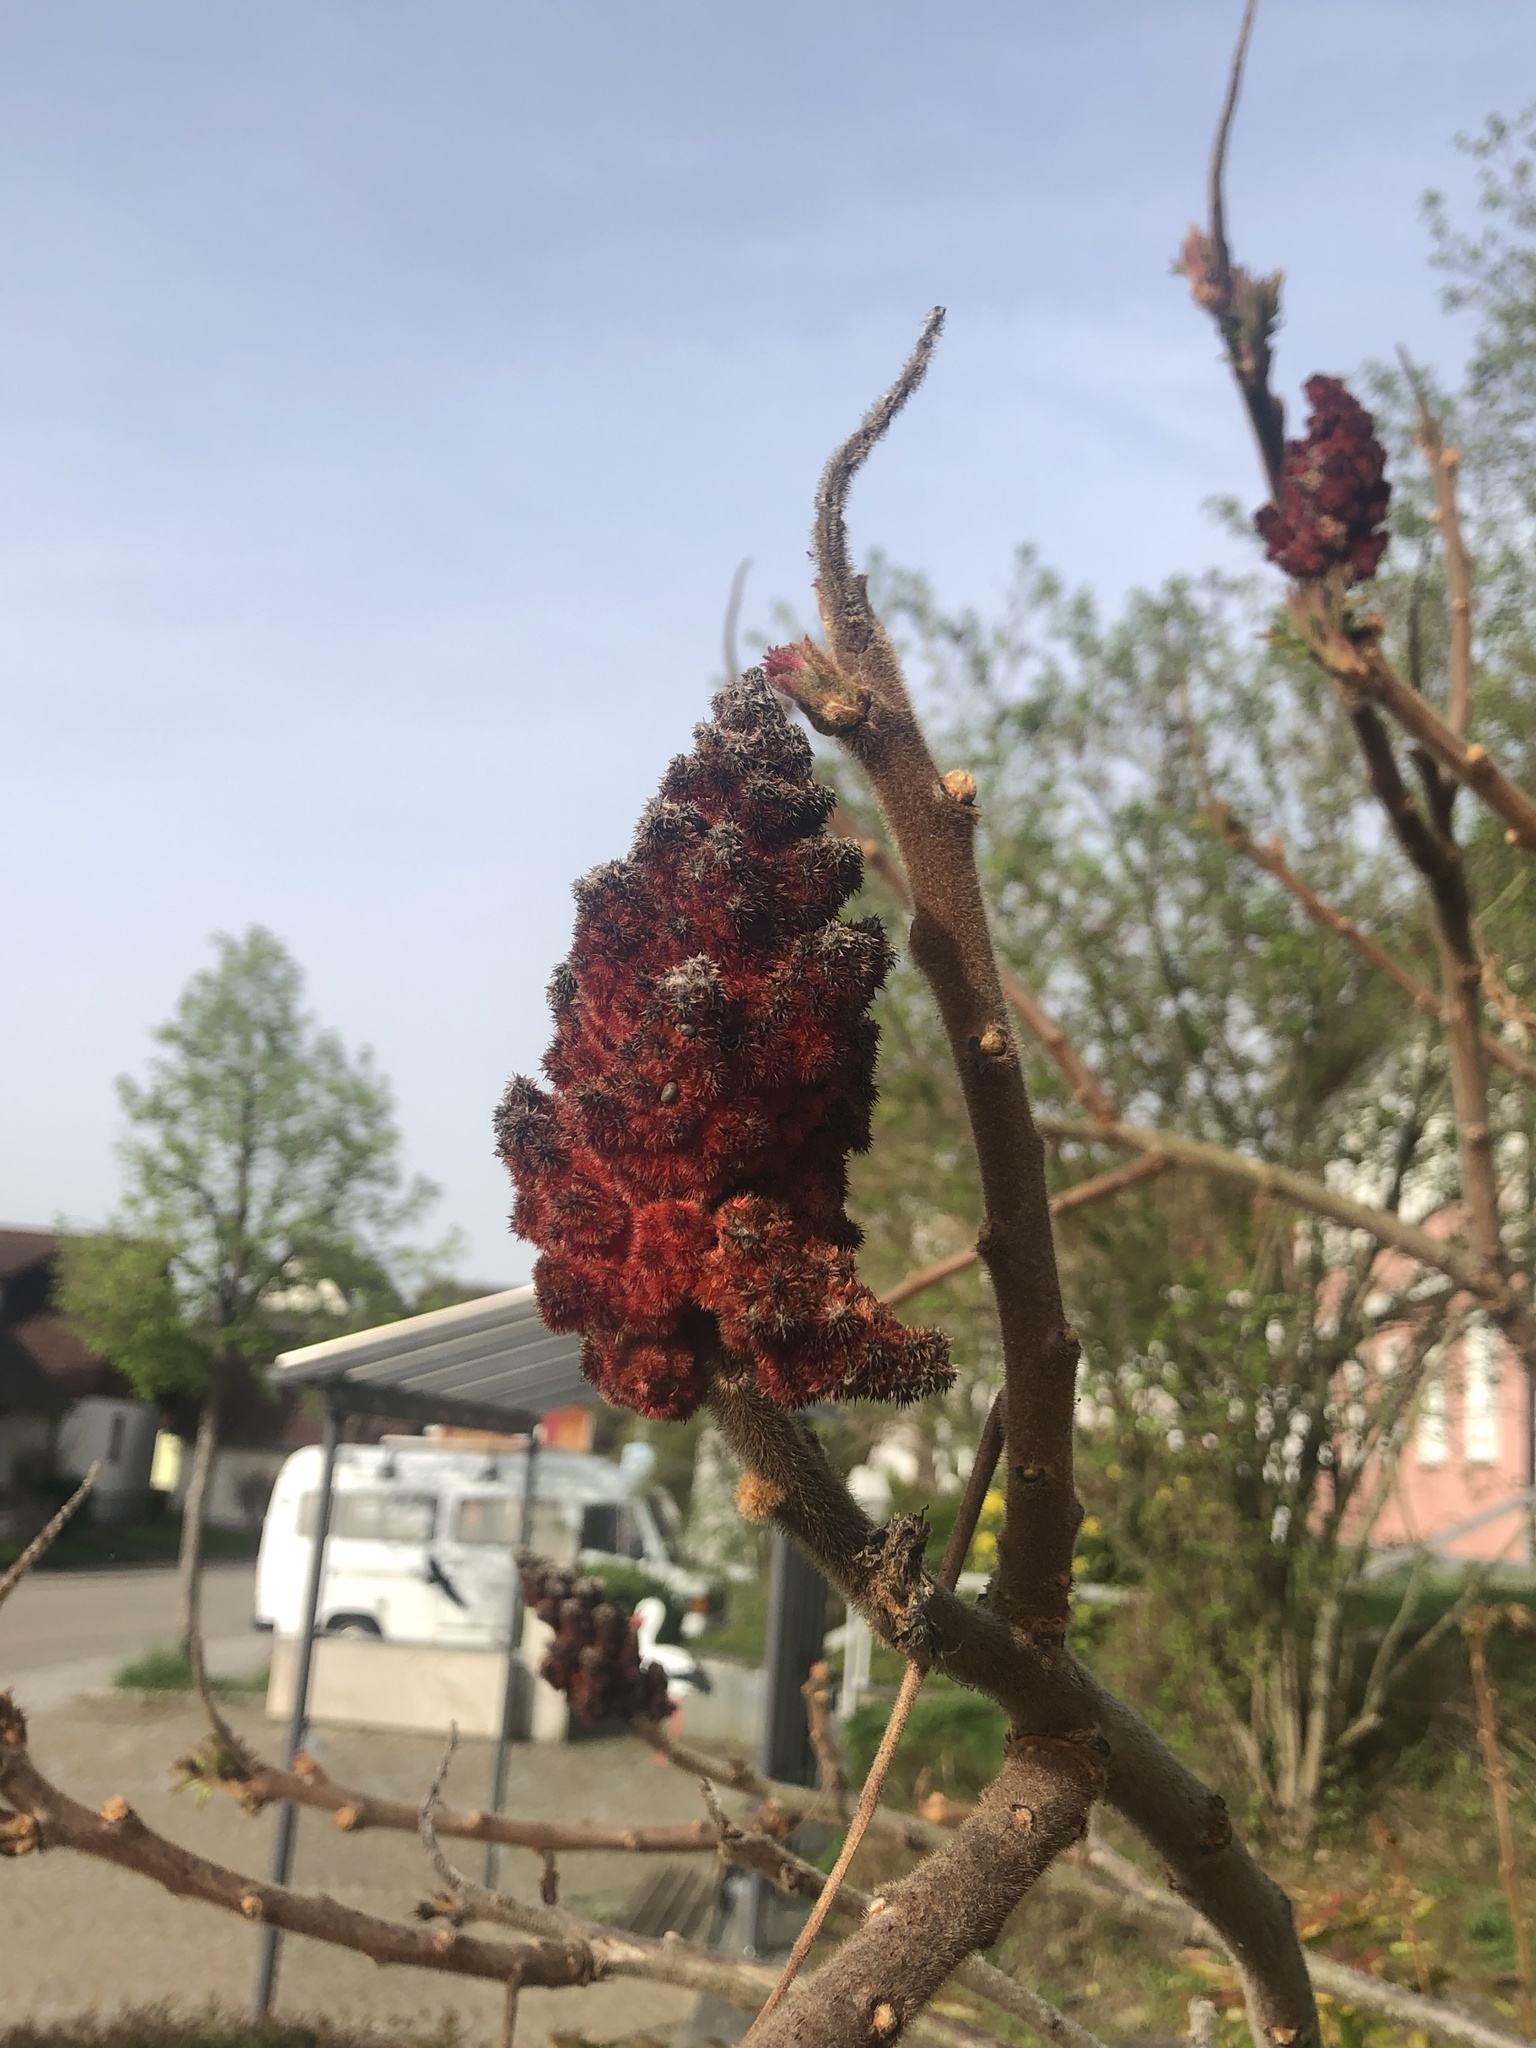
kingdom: Plantae
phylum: Tracheophyta
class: Magnoliopsida
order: Sapindales
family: Anacardiaceae
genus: Rhus
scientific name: Rhus typhina
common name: Staghorn sumac
